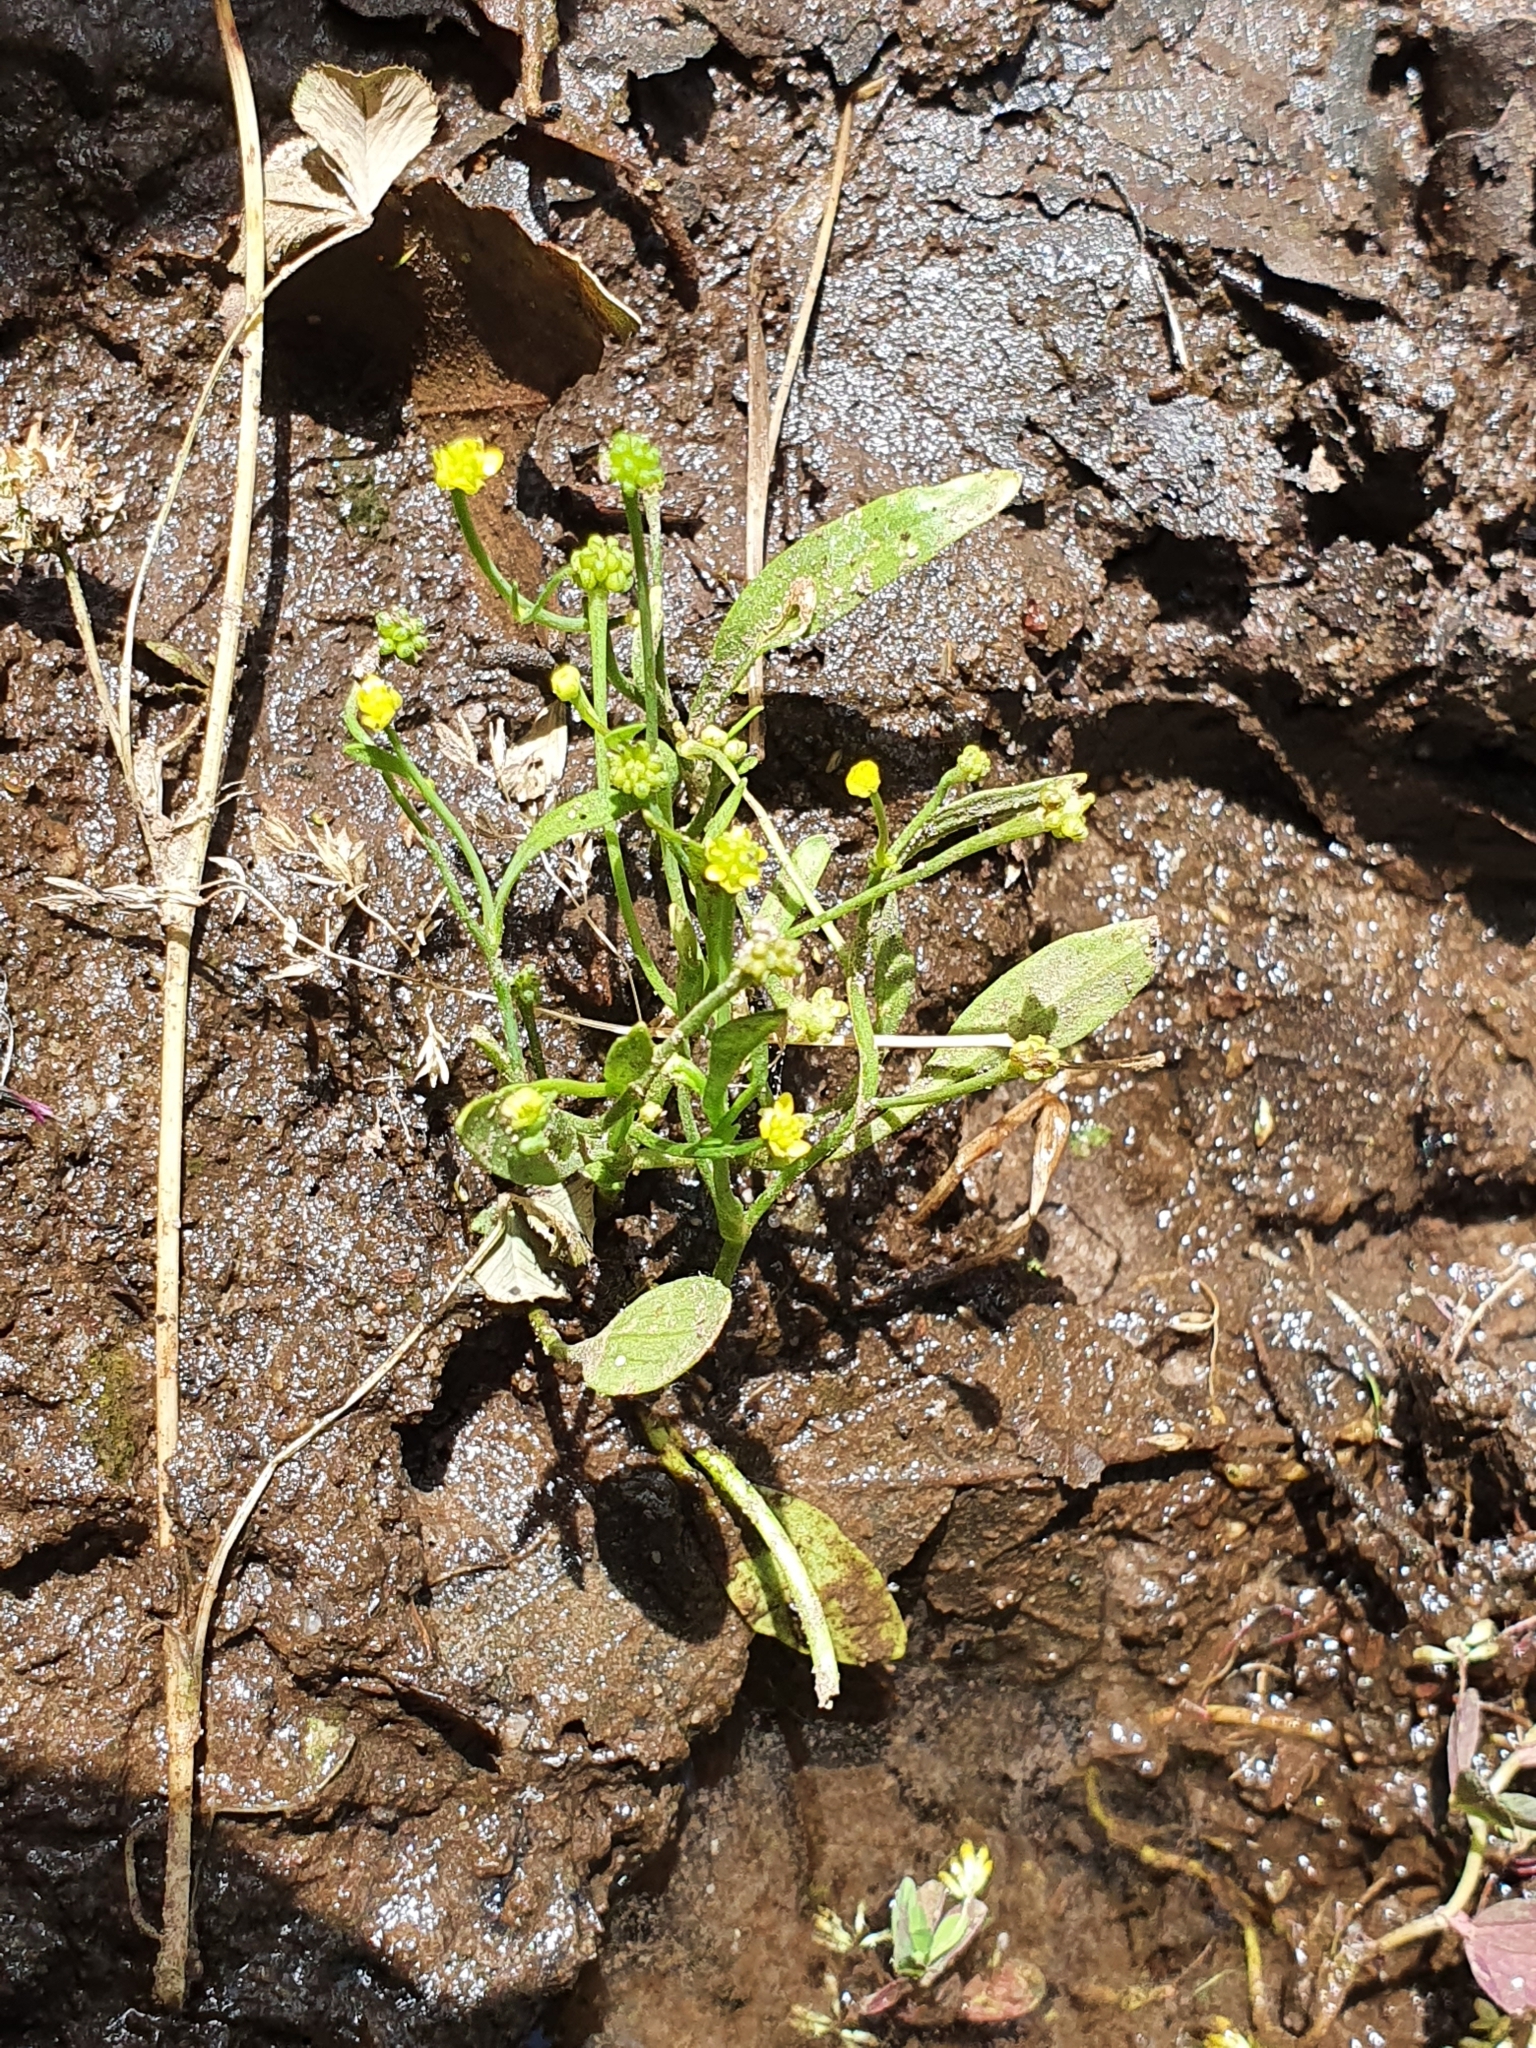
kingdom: Plantae
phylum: Tracheophyta
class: Magnoliopsida
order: Ranunculales
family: Ranunculaceae
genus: Ranunculus
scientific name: Ranunculus ophioglossifolius
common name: Adder's-tongue spearwort
